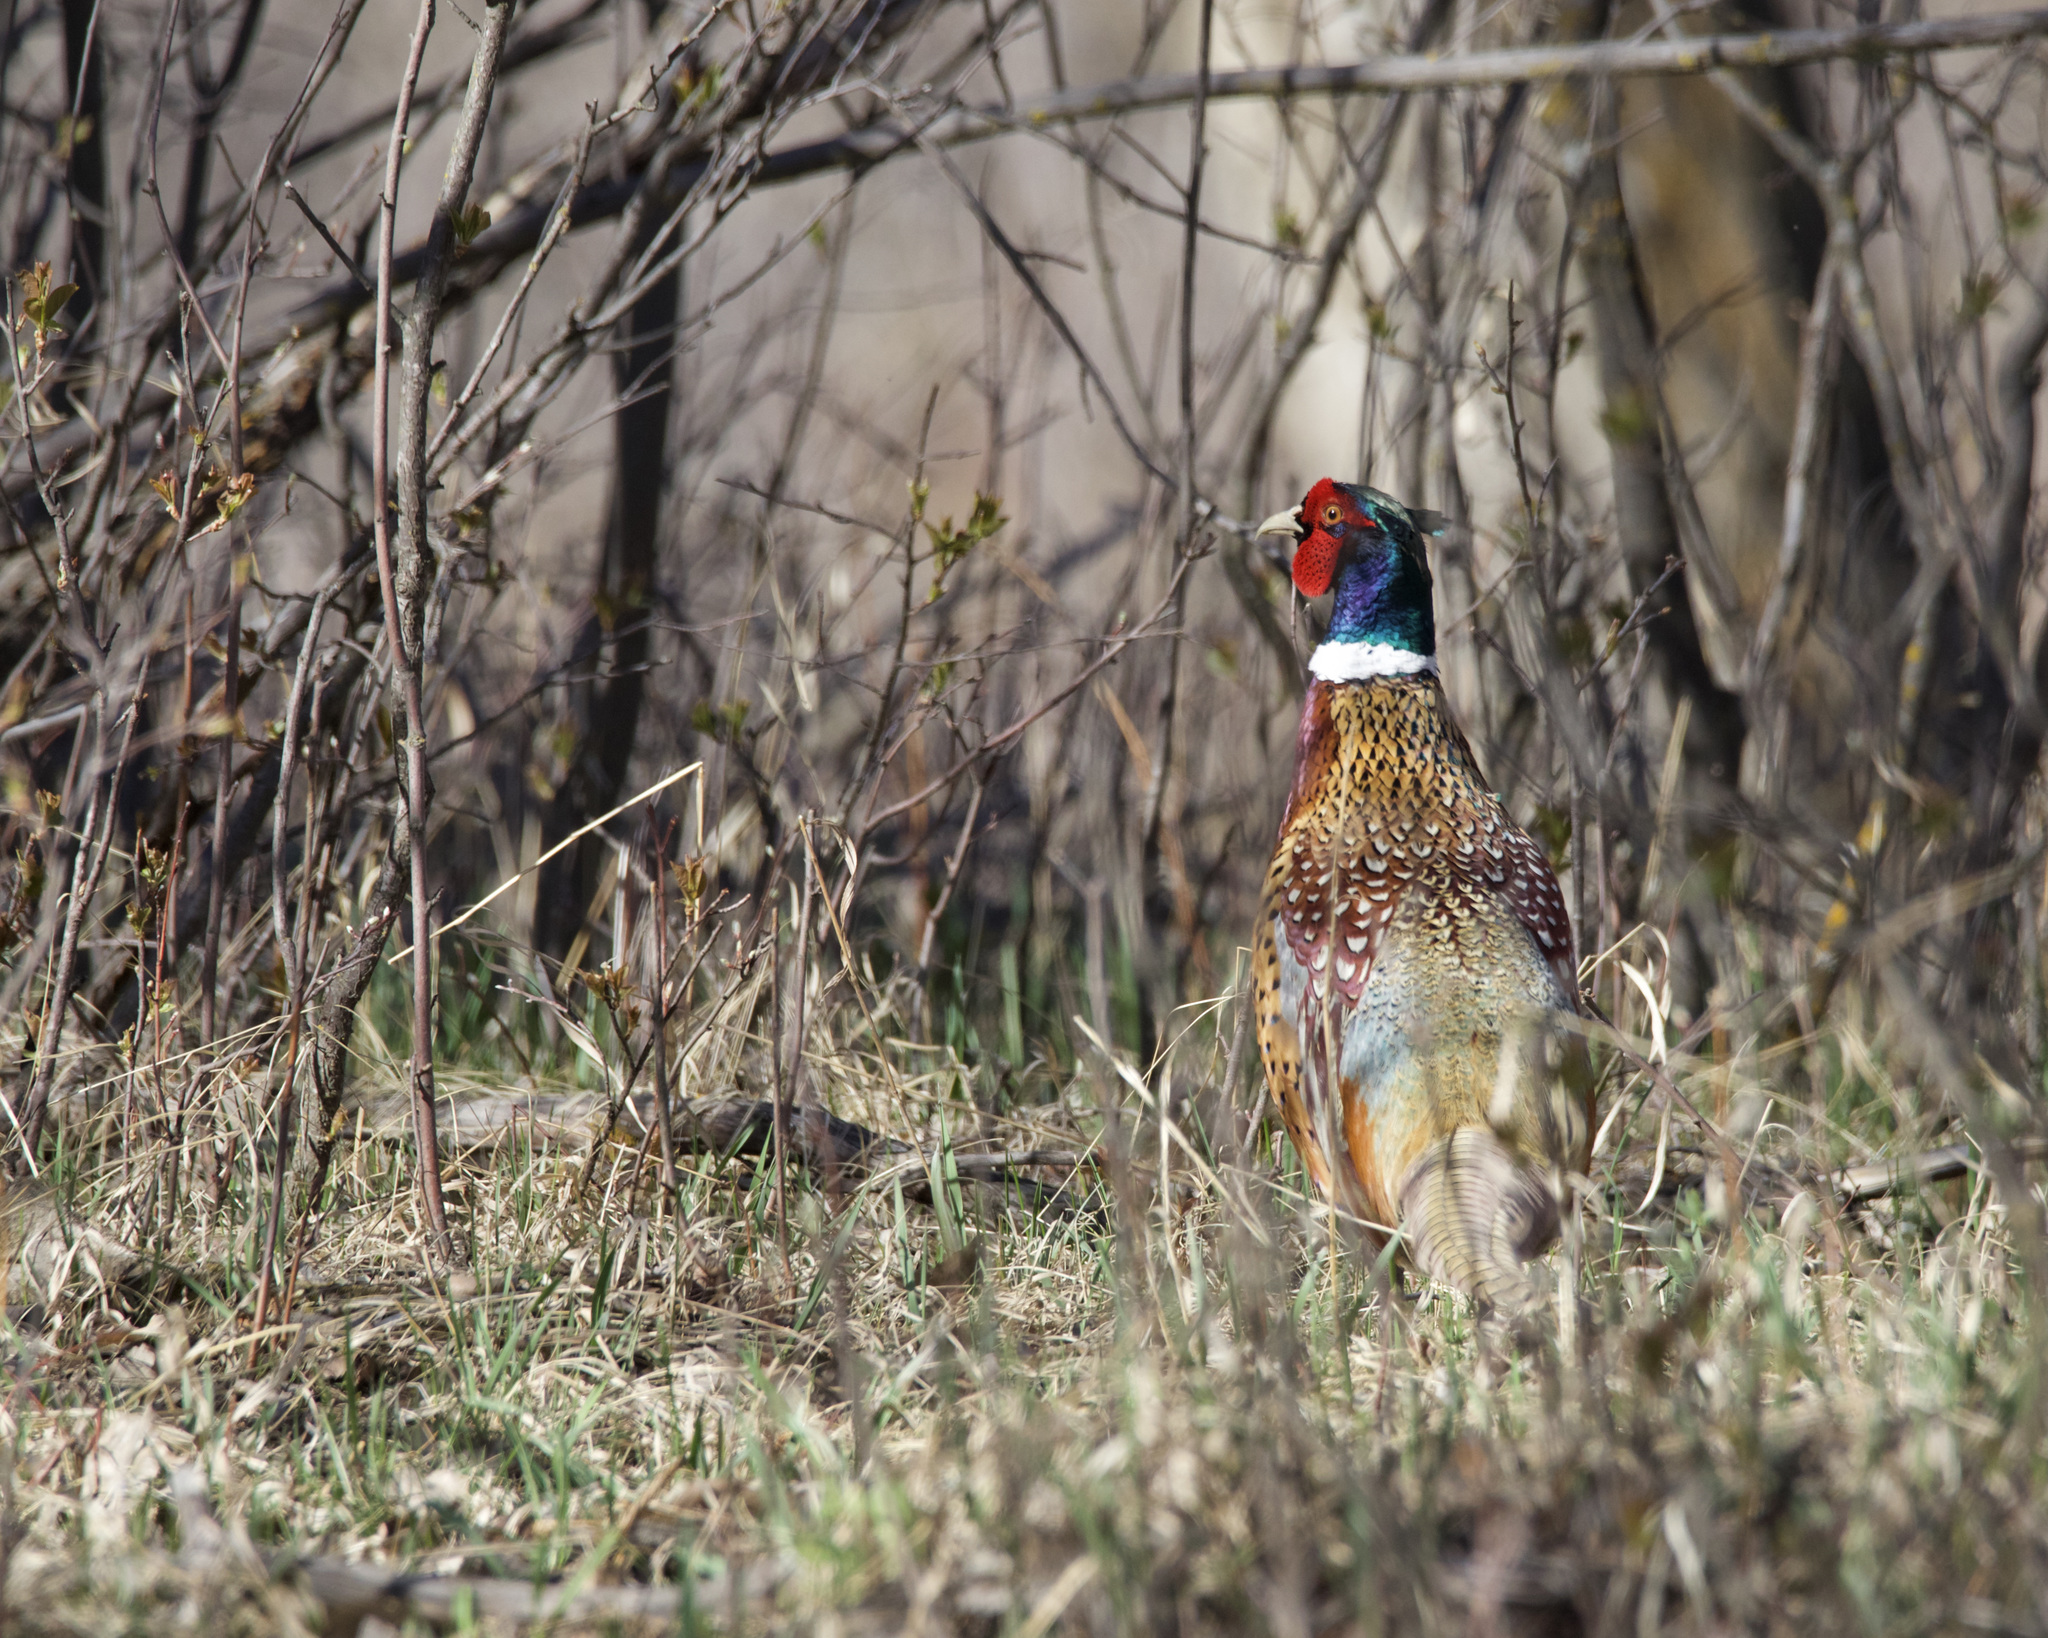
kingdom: Animalia
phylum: Chordata
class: Aves
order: Galliformes
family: Phasianidae
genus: Phasianus
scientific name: Phasianus colchicus
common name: Common pheasant
